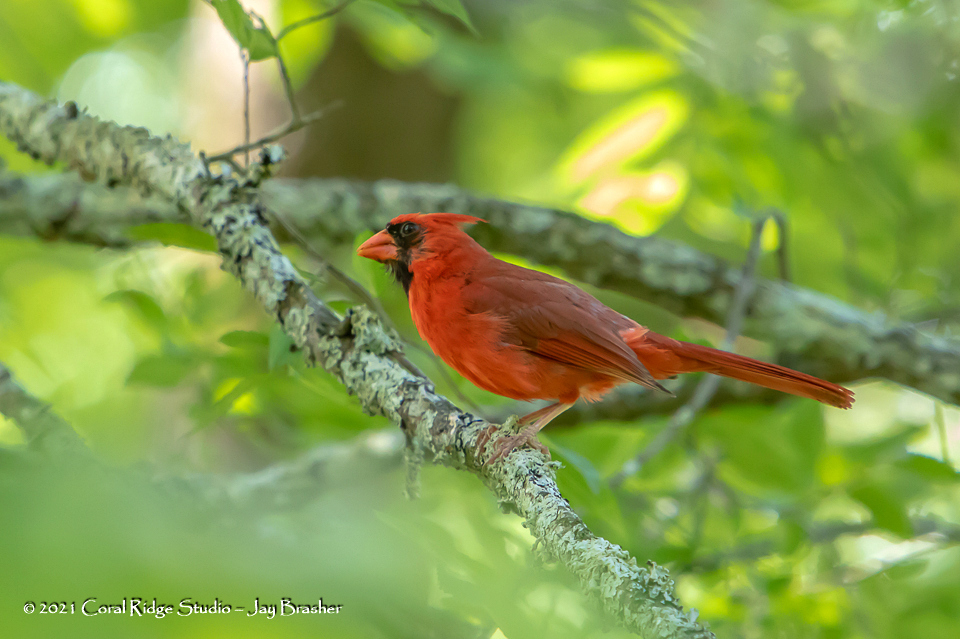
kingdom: Animalia
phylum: Chordata
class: Aves
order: Passeriformes
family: Cardinalidae
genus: Cardinalis
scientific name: Cardinalis cardinalis
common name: Northern cardinal
